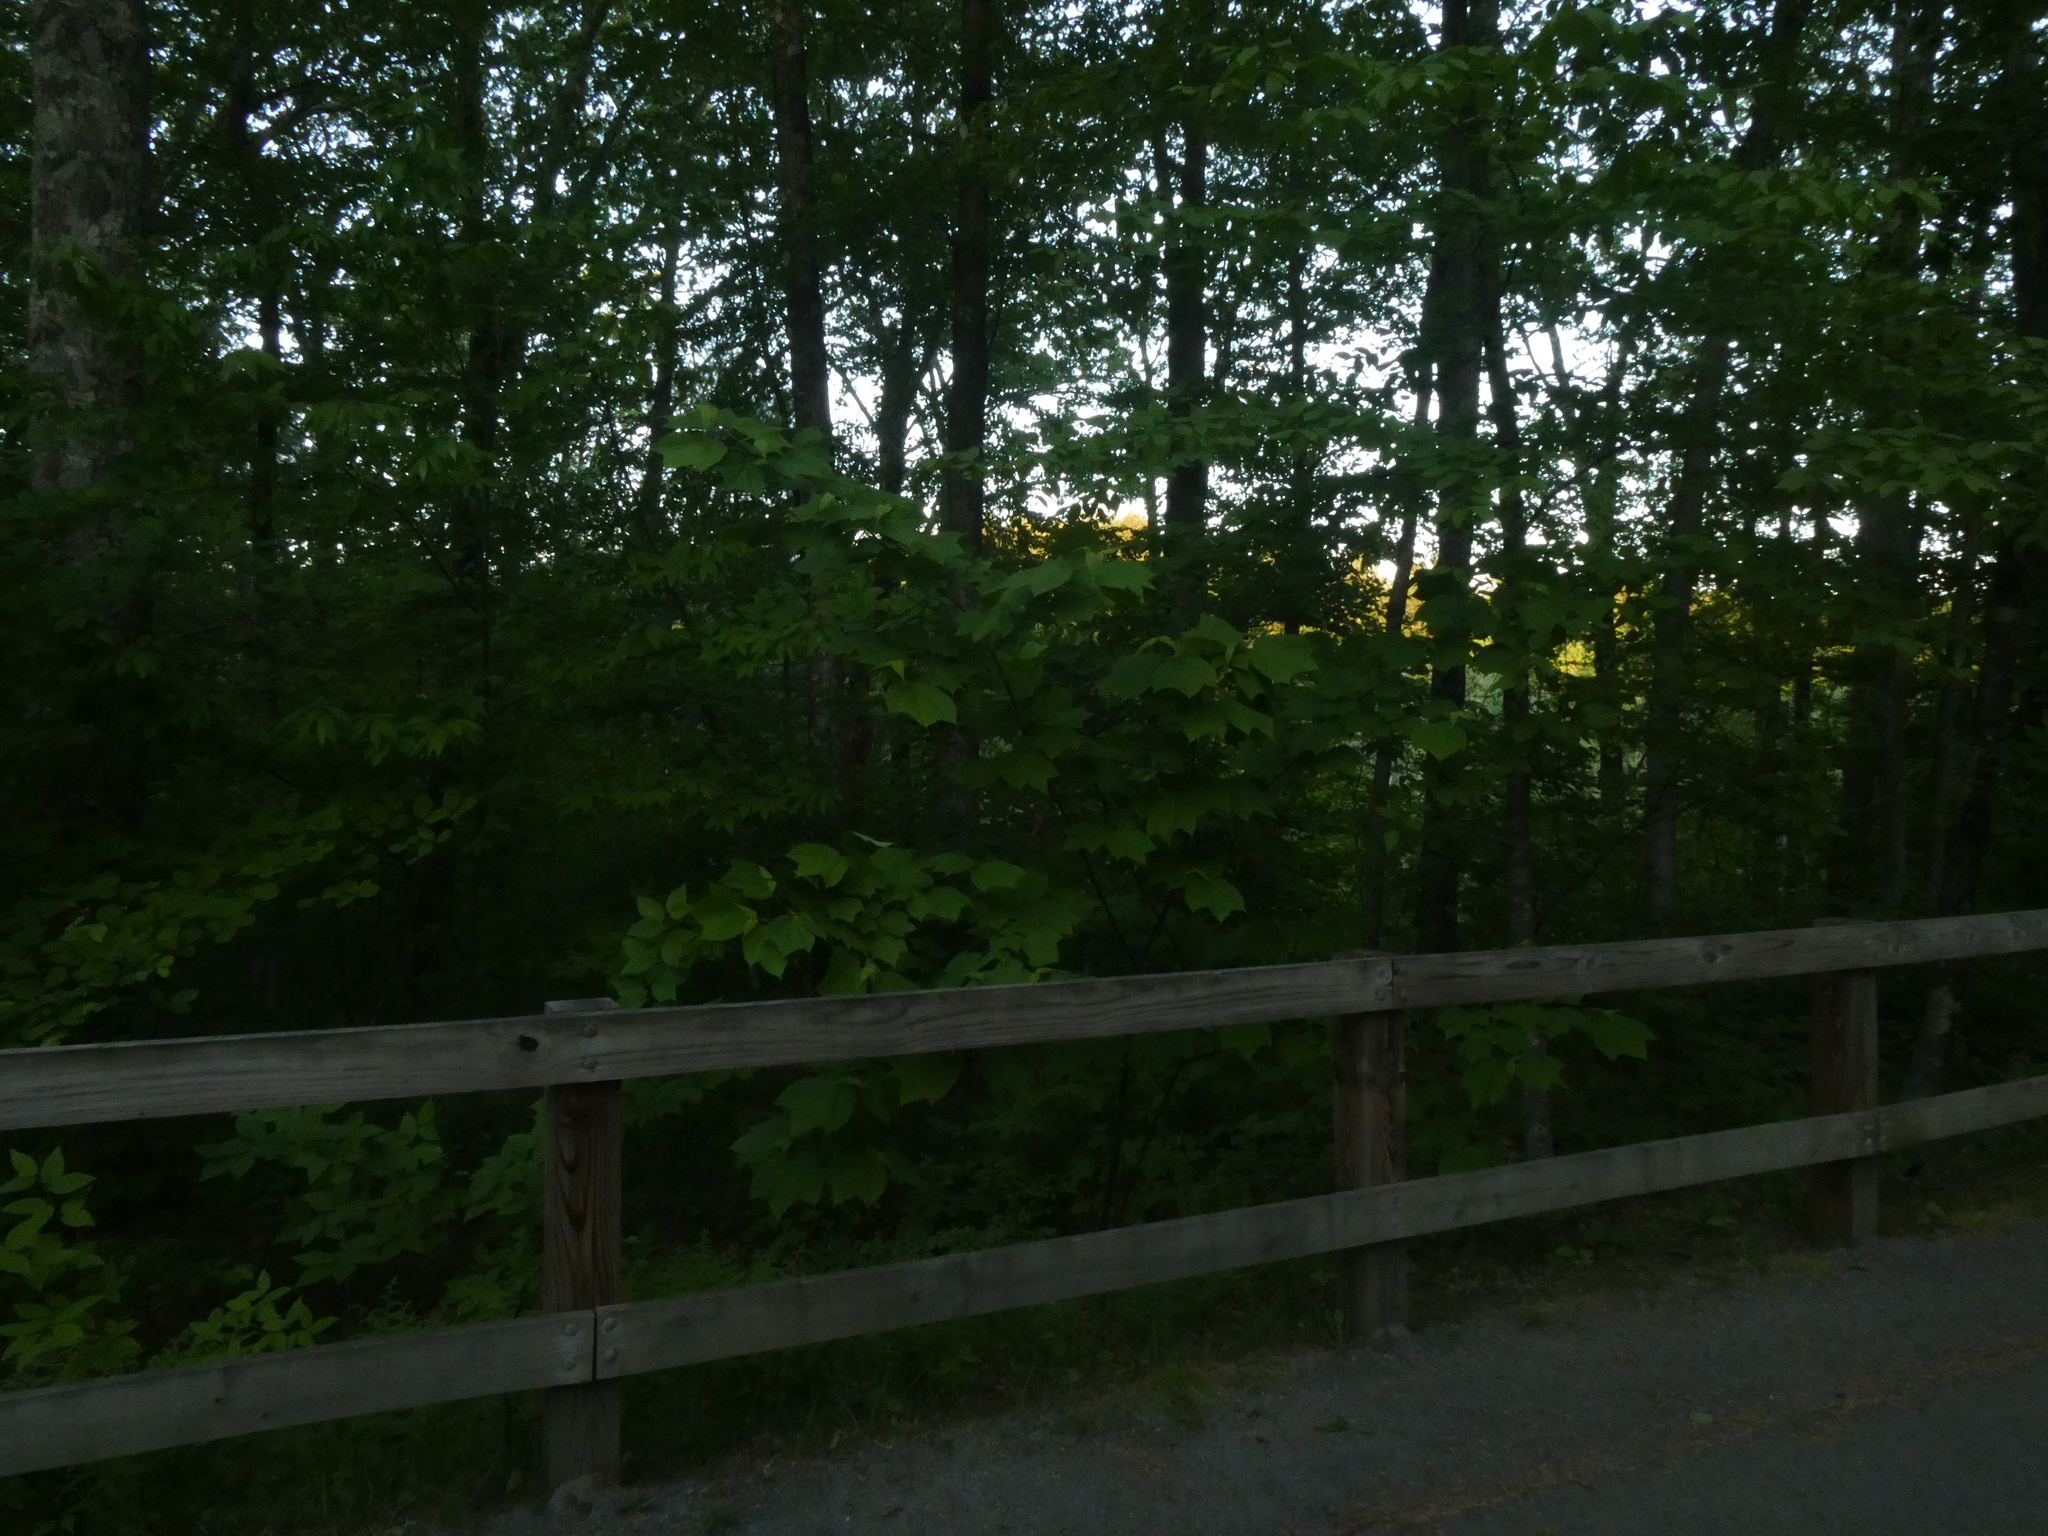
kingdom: Plantae
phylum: Tracheophyta
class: Magnoliopsida
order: Sapindales
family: Sapindaceae
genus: Acer
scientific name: Acer pensylvanicum
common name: Moosewood
